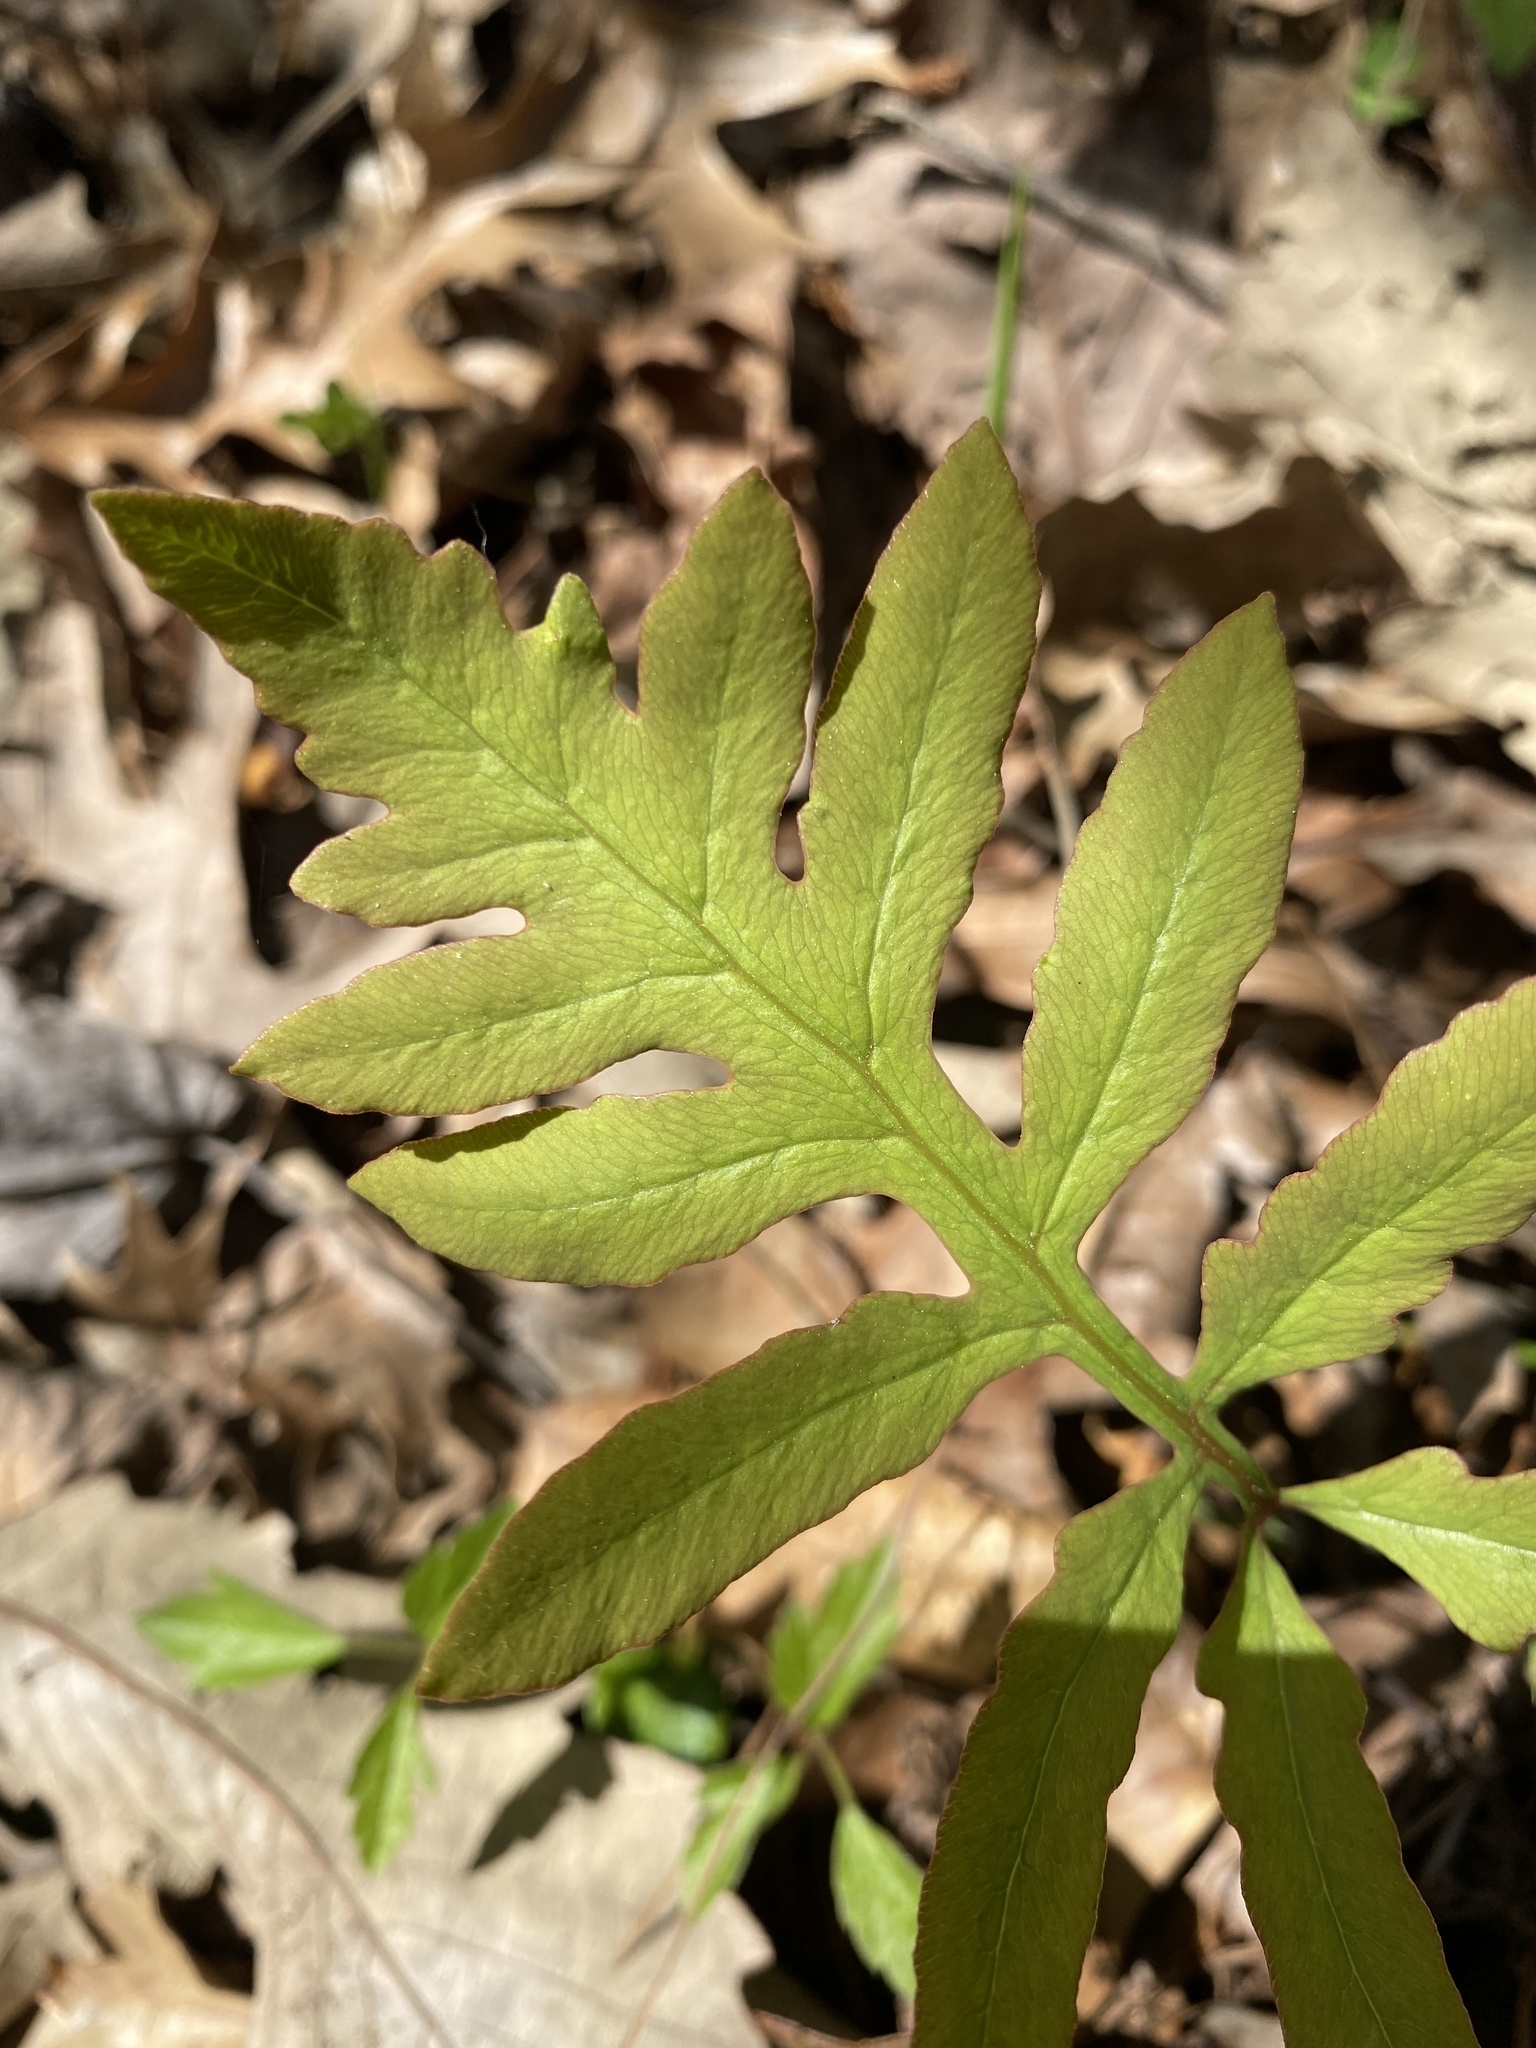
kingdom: Plantae
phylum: Tracheophyta
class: Polypodiopsida
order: Polypodiales
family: Onocleaceae
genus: Onoclea
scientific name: Onoclea sensibilis
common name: Sensitive fern
